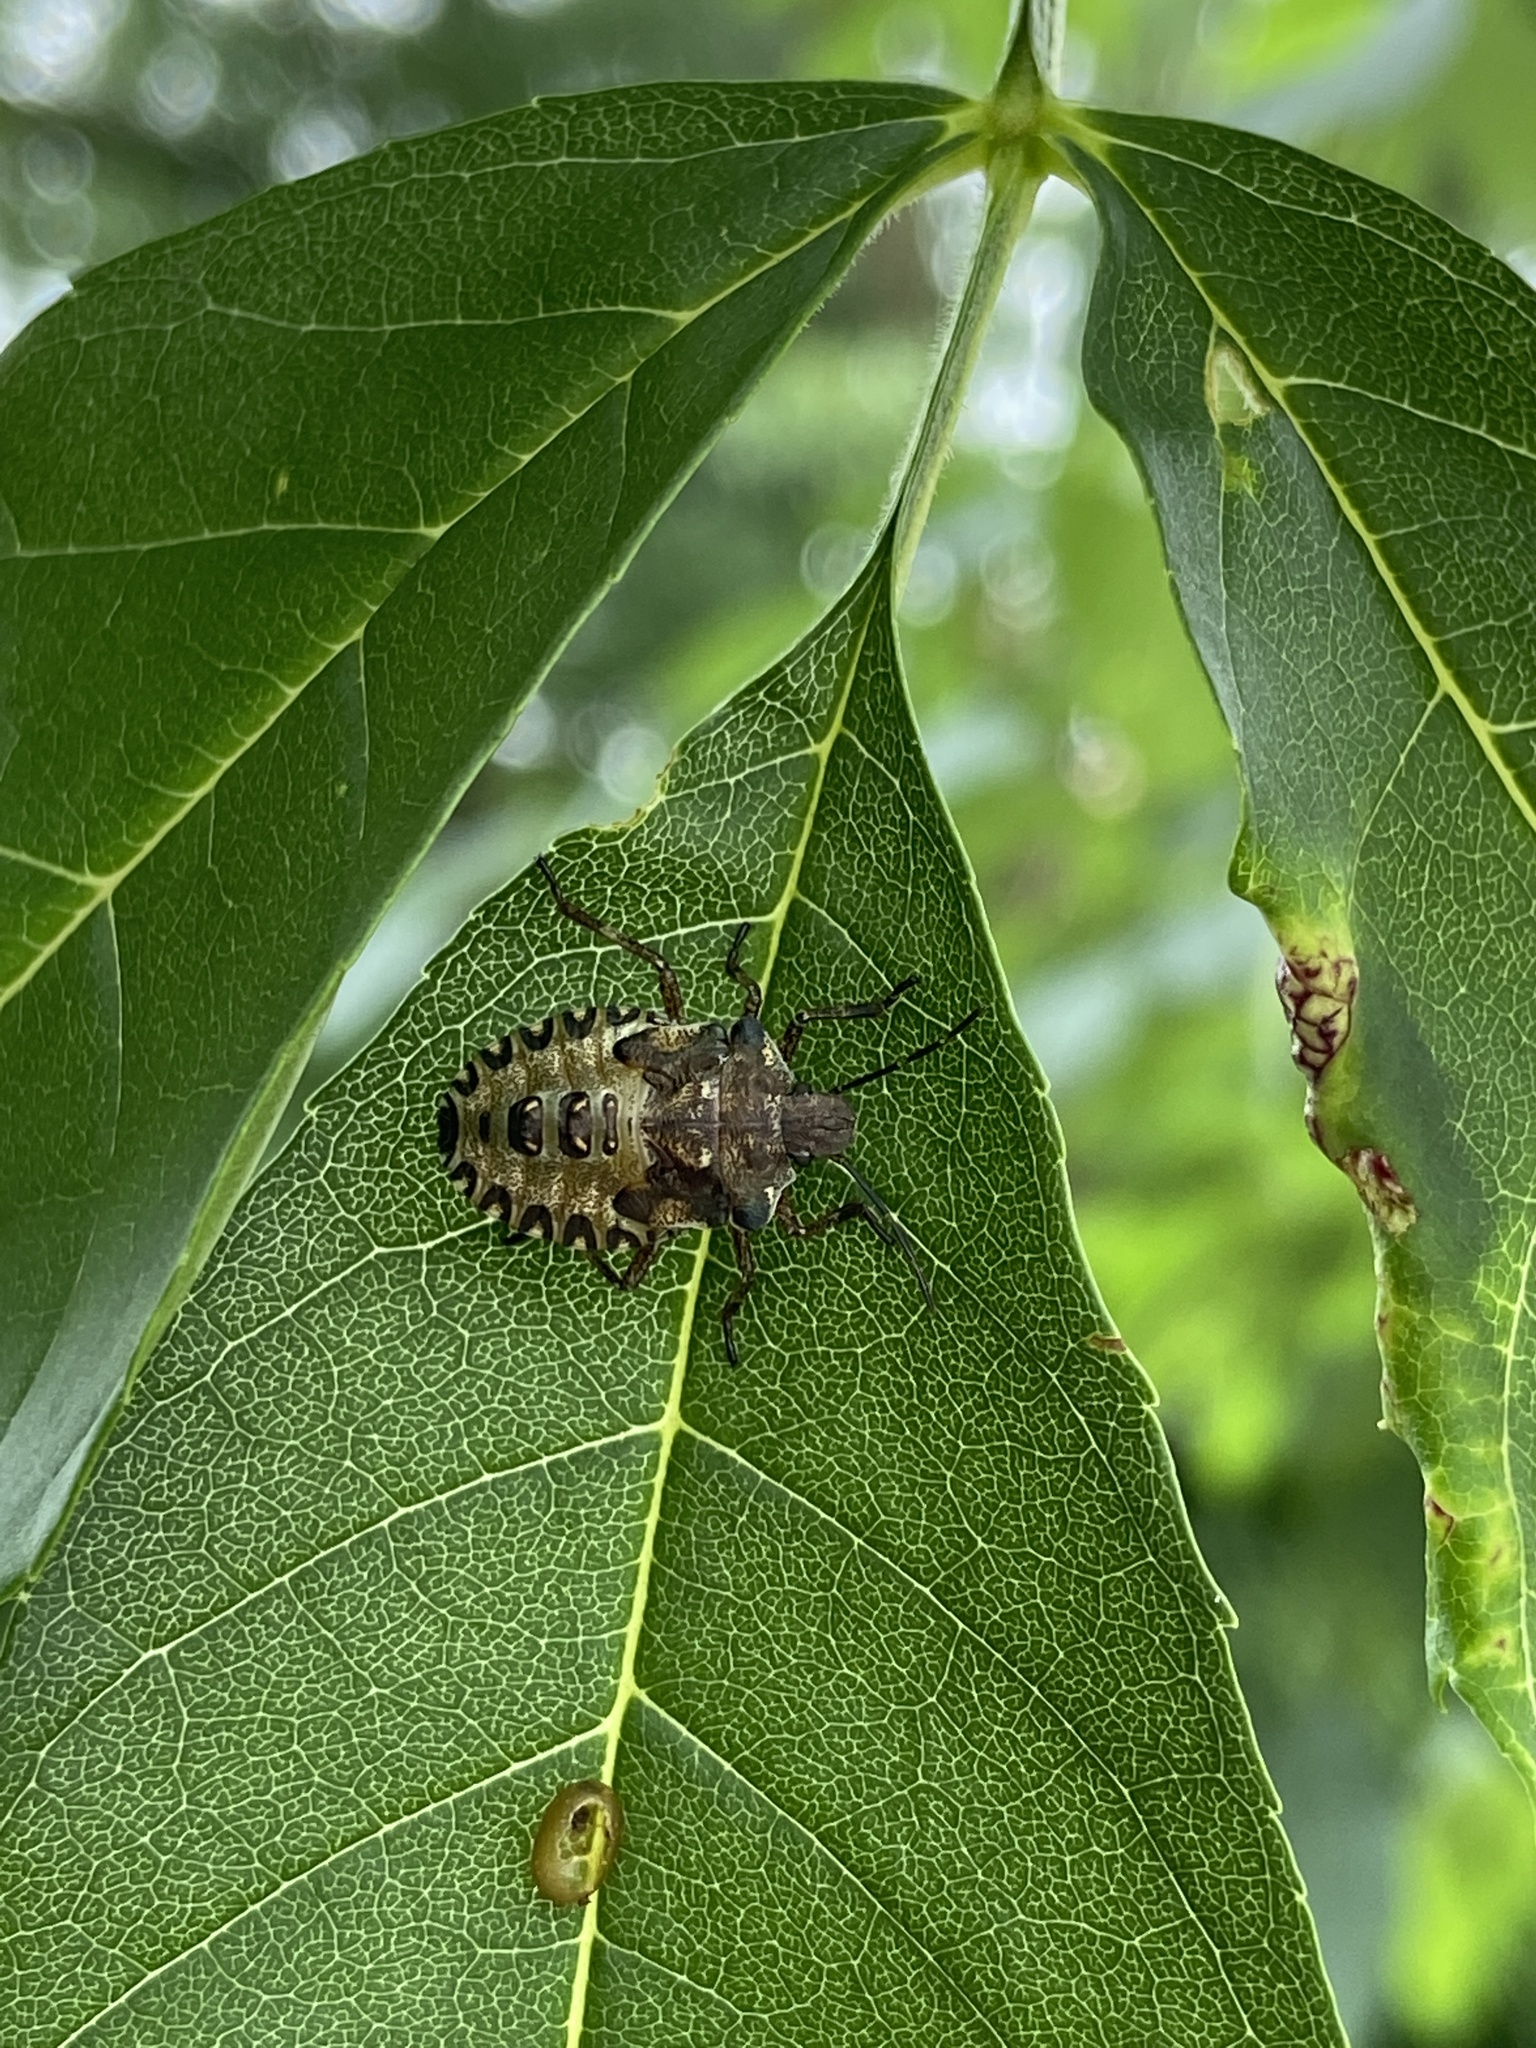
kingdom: Animalia
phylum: Arthropoda
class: Insecta
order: Hemiptera
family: Pentatomidae
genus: Pentatoma
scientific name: Pentatoma rufipes
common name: Forest bug
